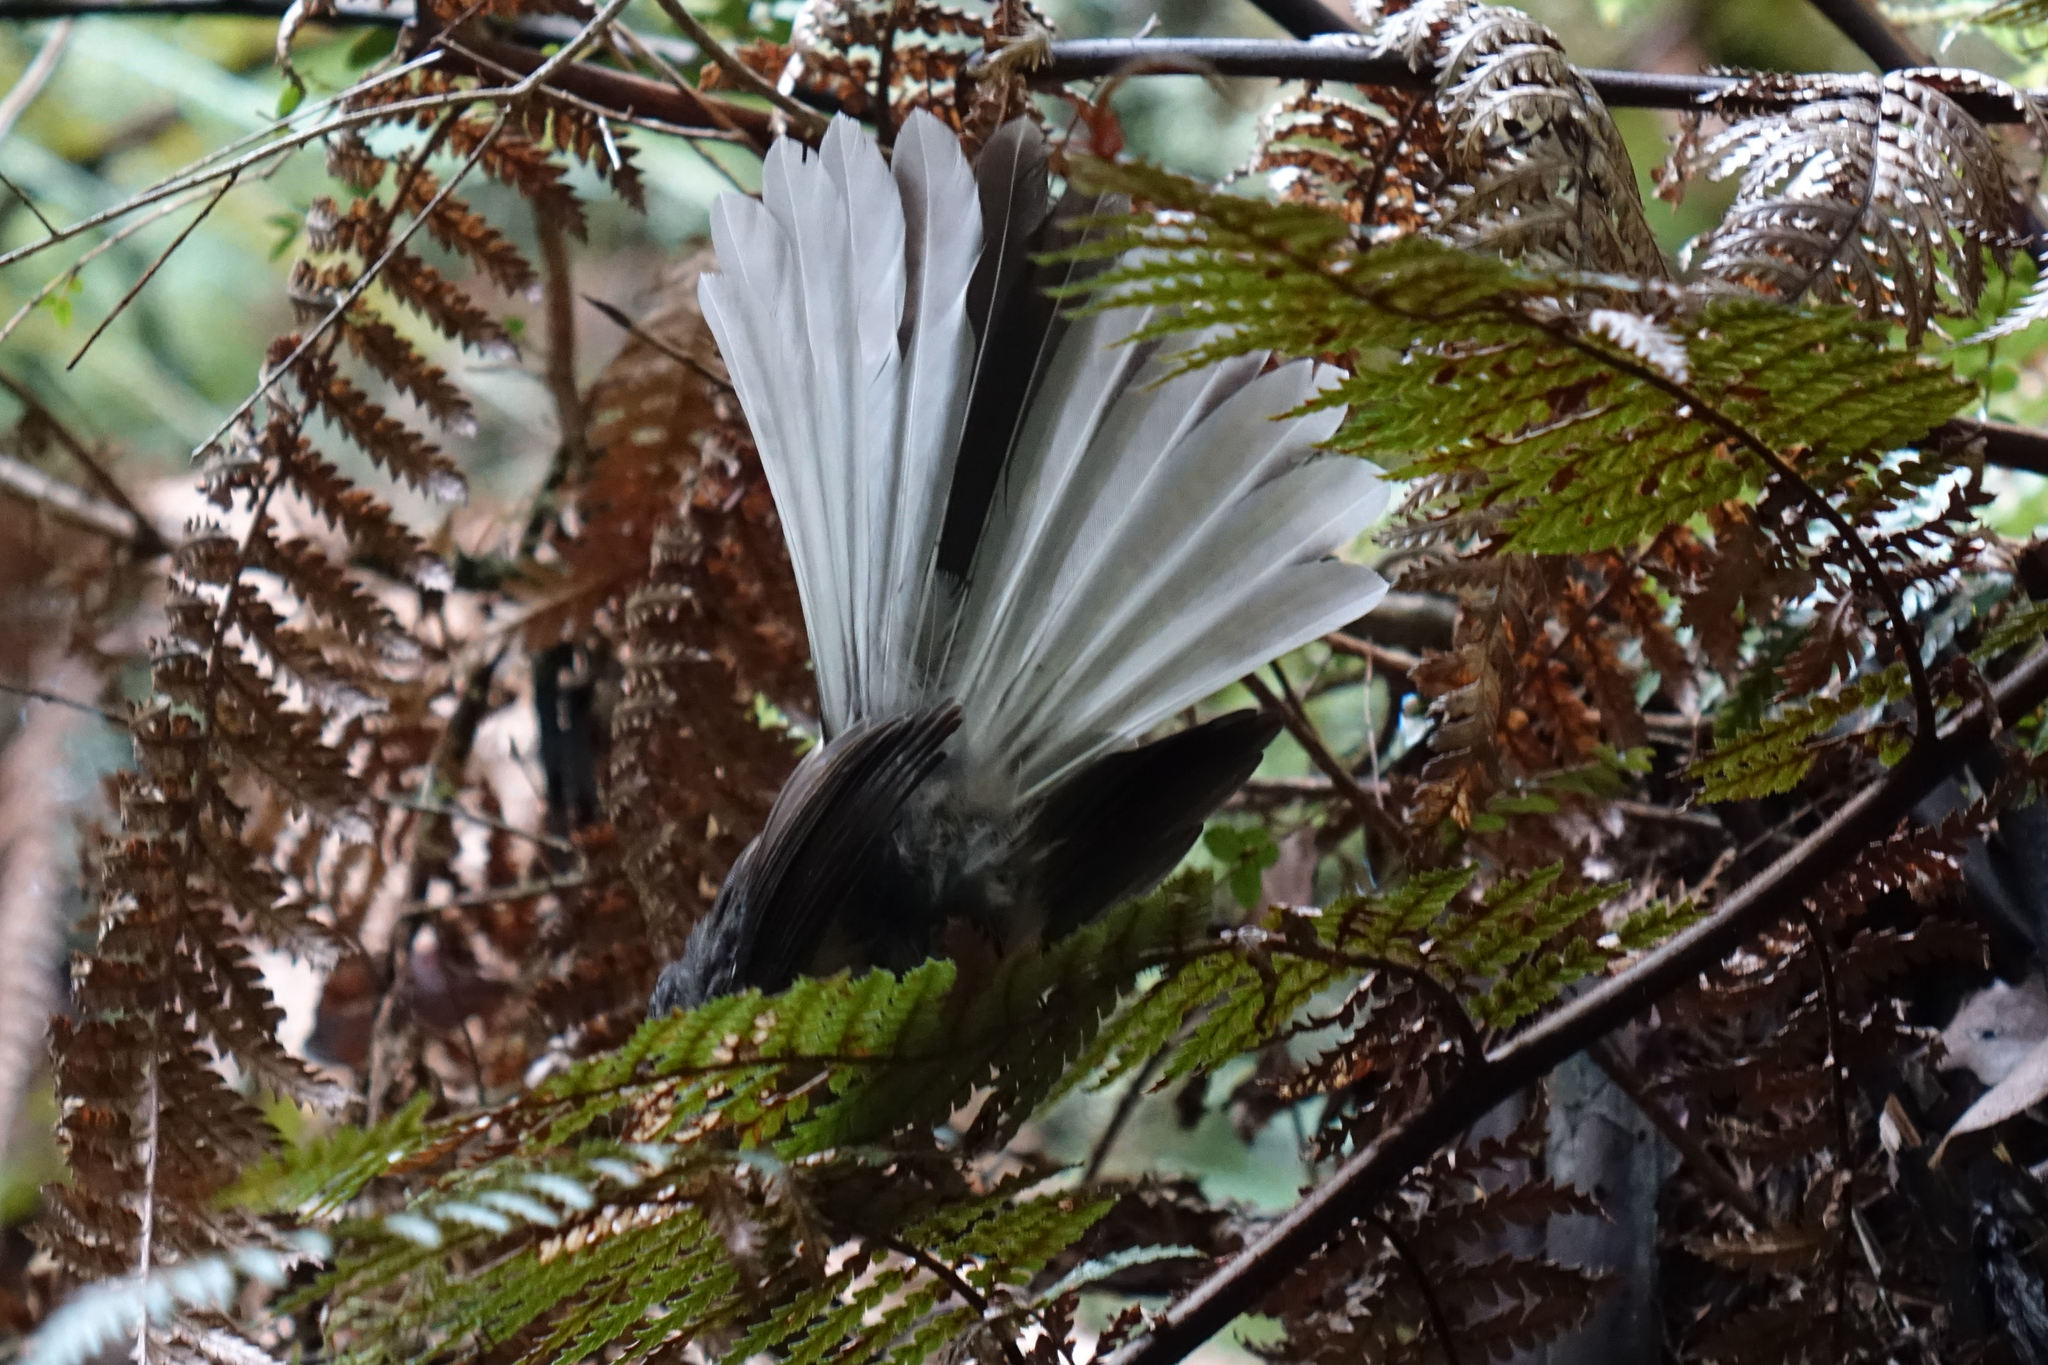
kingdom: Animalia
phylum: Chordata
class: Aves
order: Passeriformes
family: Rhipiduridae
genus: Rhipidura
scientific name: Rhipidura fuliginosa
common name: New zealand fantail
